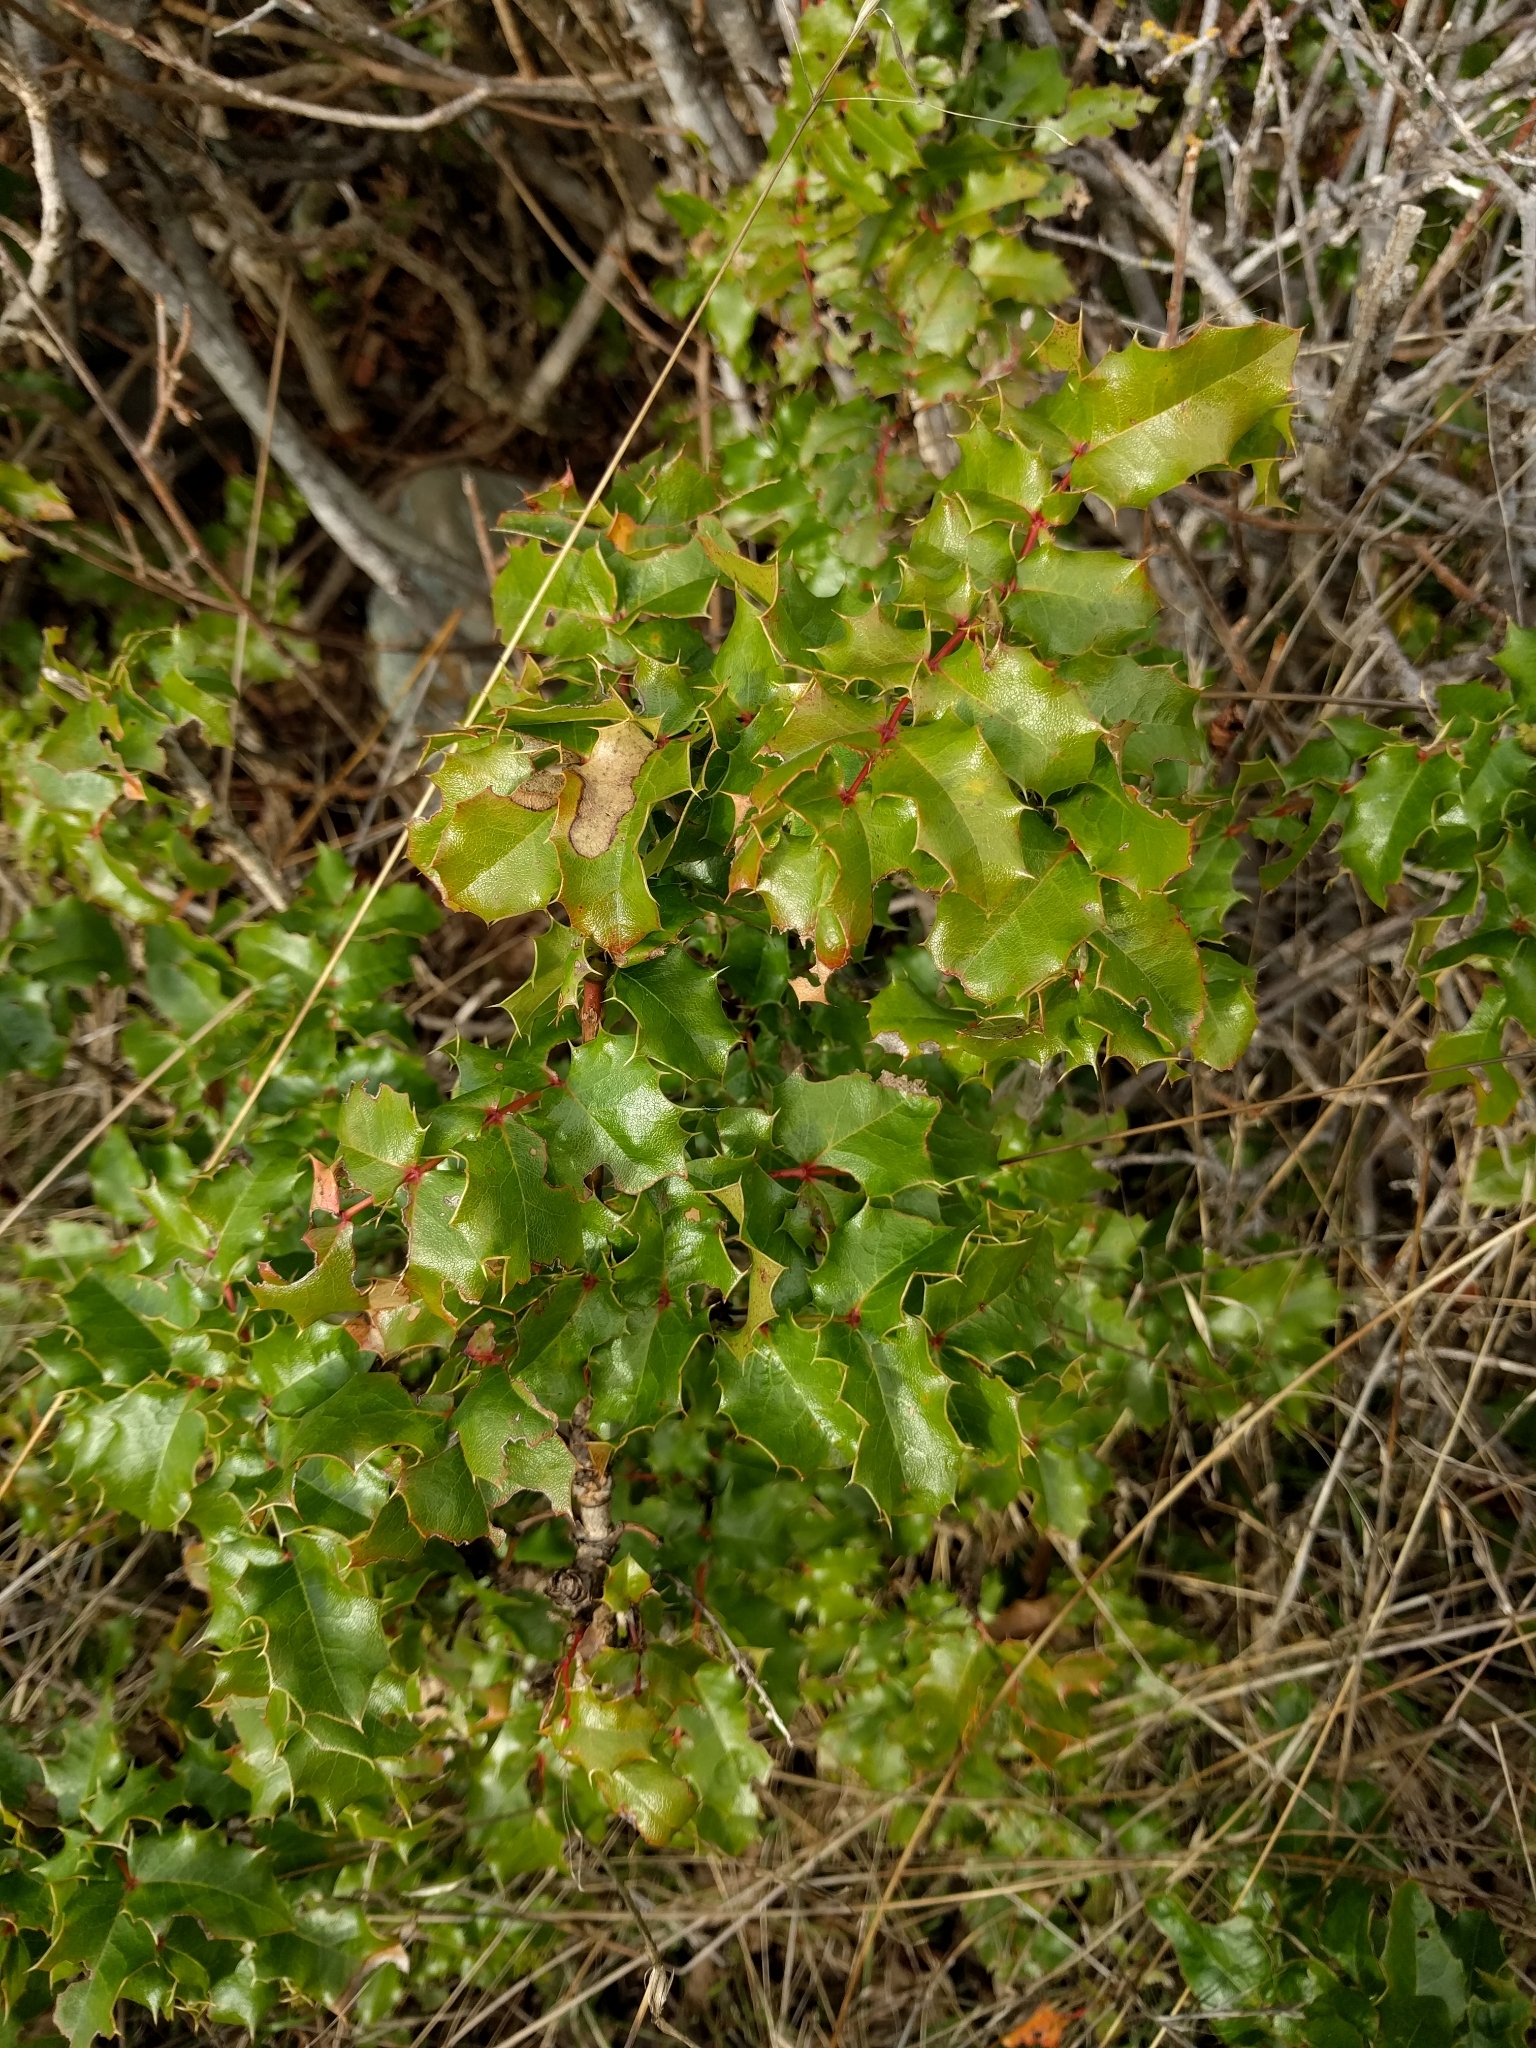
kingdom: Plantae
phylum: Tracheophyta
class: Magnoliopsida
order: Ranunculales
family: Berberidaceae
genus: Mahonia
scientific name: Mahonia
